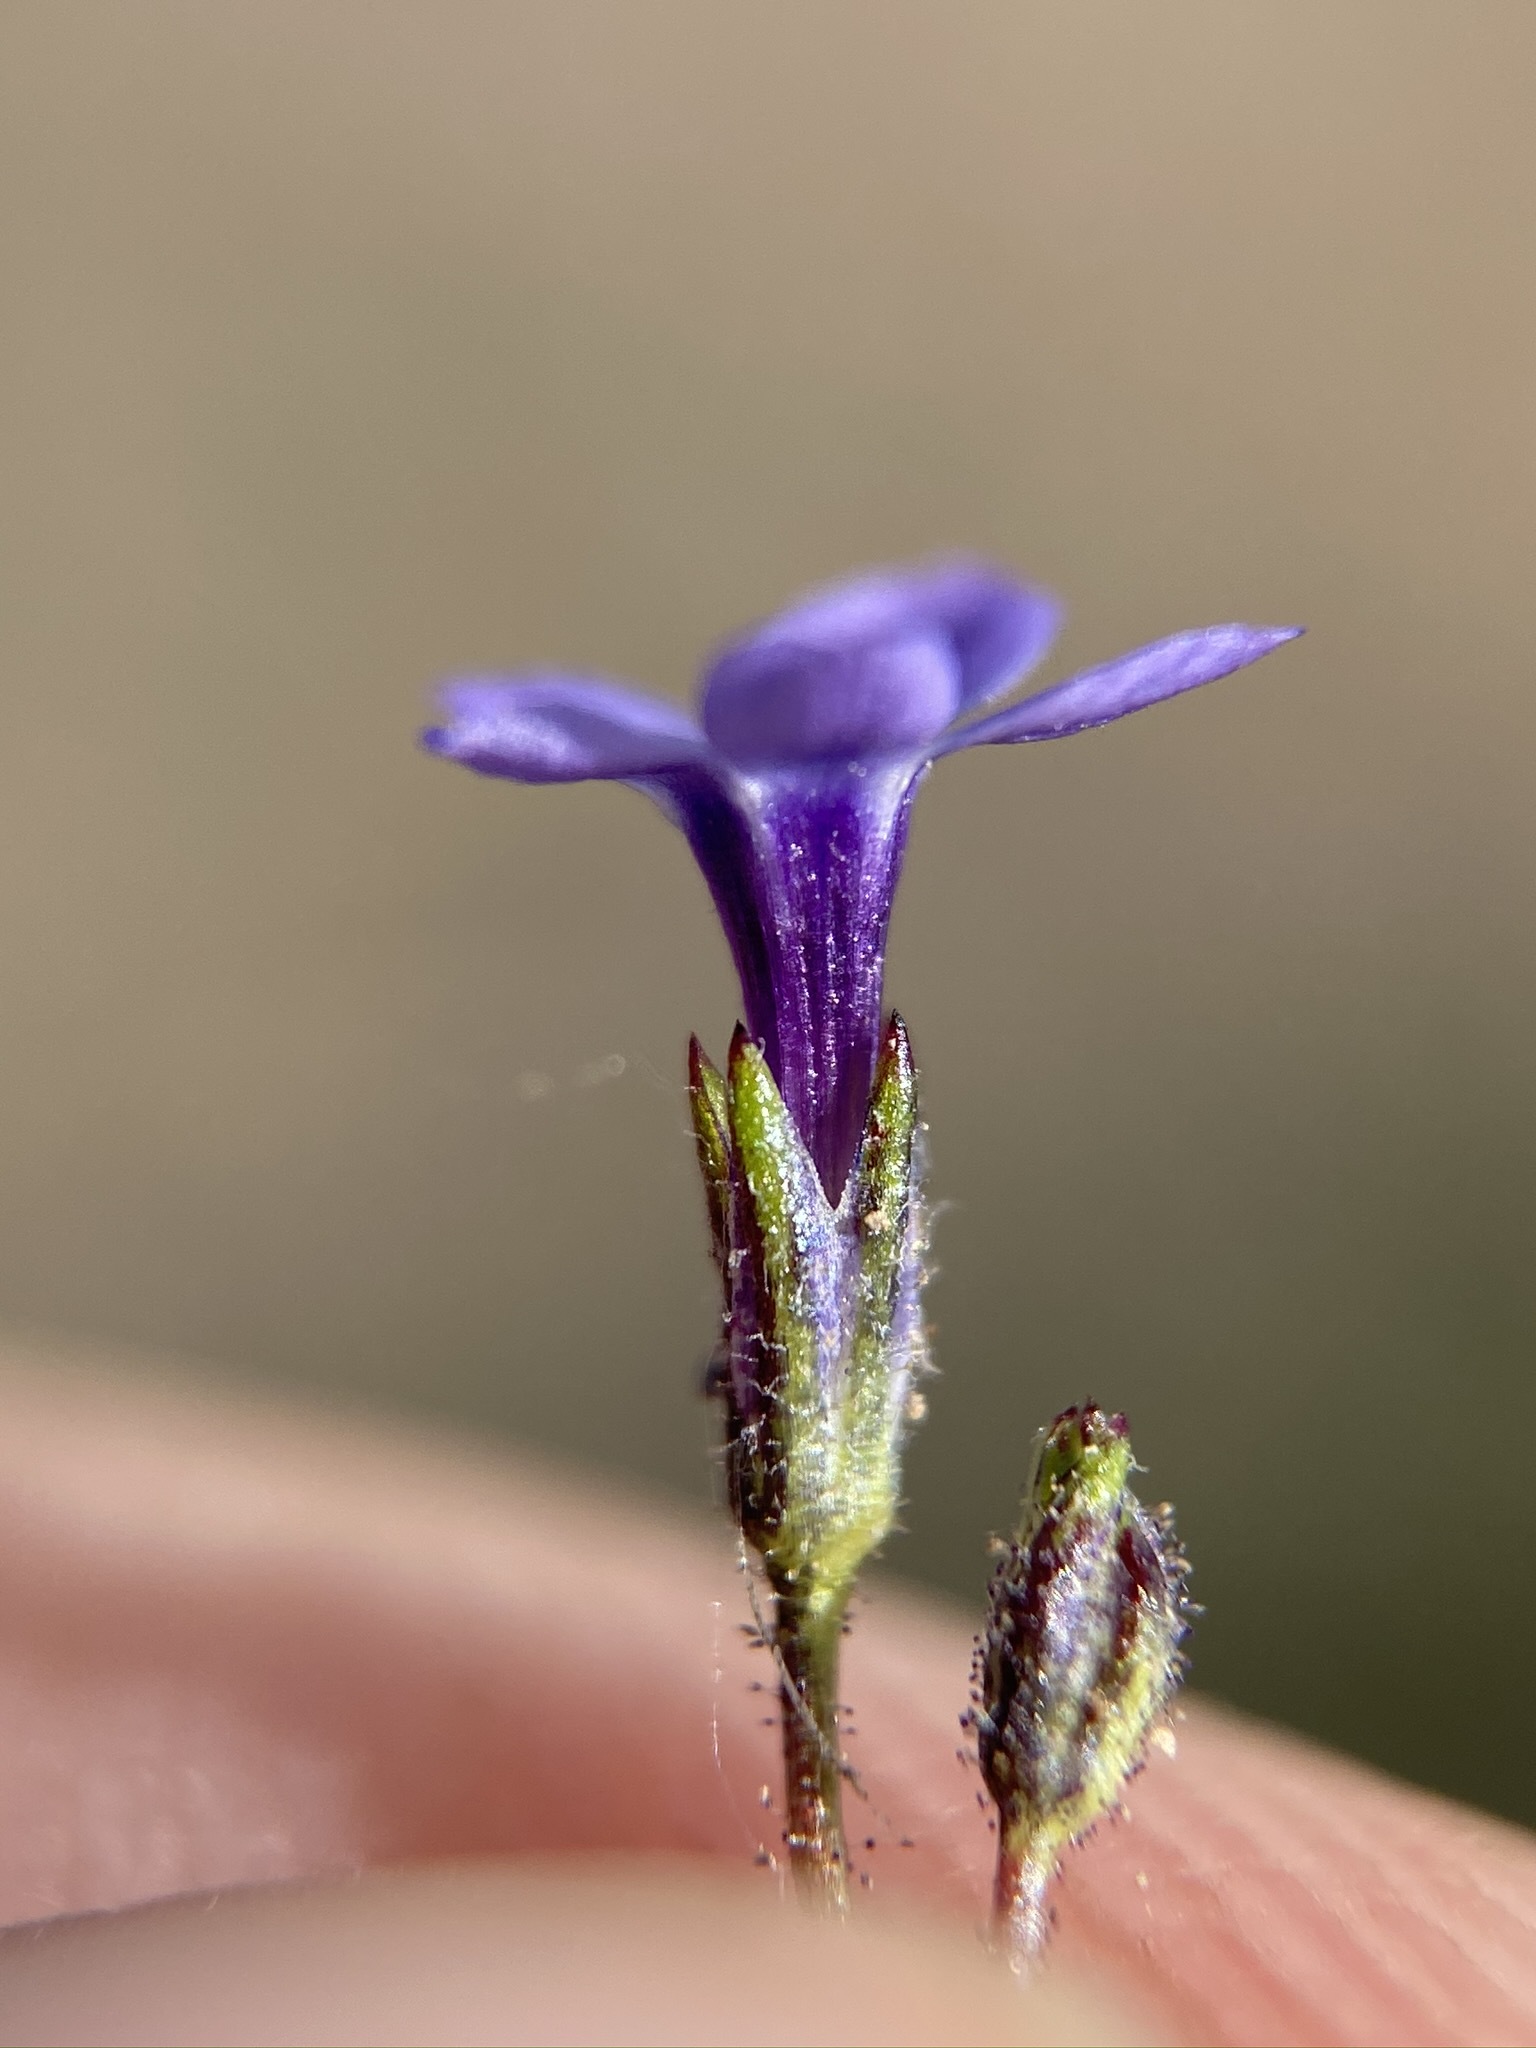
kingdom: Plantae
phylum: Tracheophyta
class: Magnoliopsida
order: Ericales
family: Polemoniaceae
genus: Gilia
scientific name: Gilia minor
